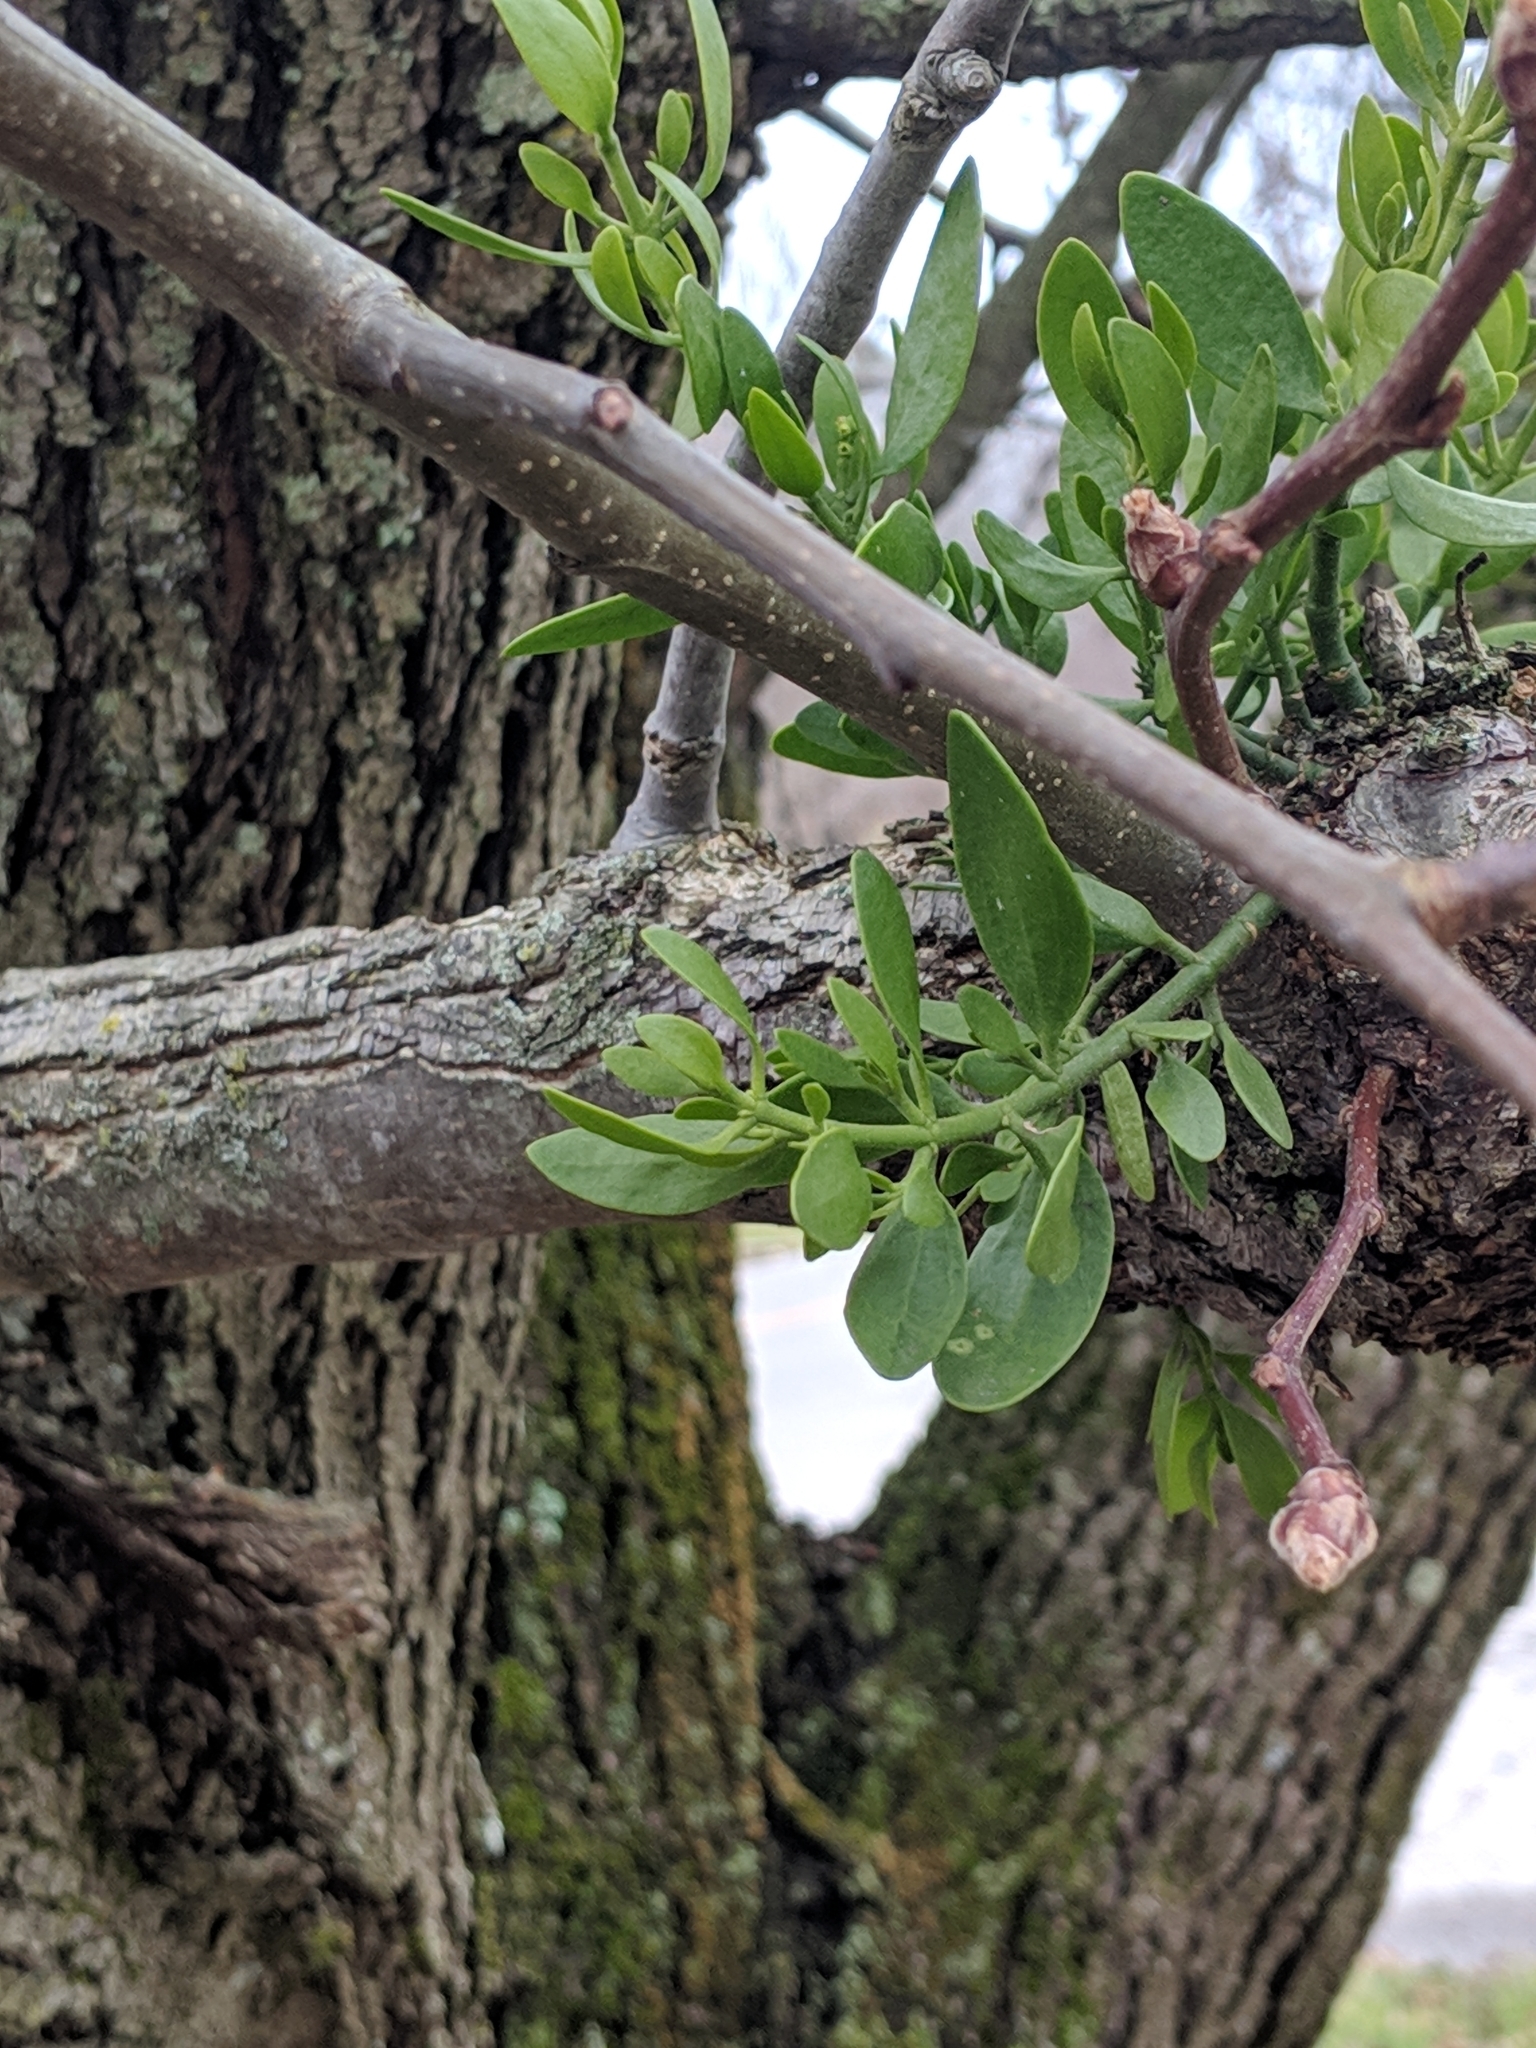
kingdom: Plantae
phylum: Tracheophyta
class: Magnoliopsida
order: Santalales
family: Viscaceae
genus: Phoradendron
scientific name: Phoradendron leucarpum
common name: Pacific mistletoe
